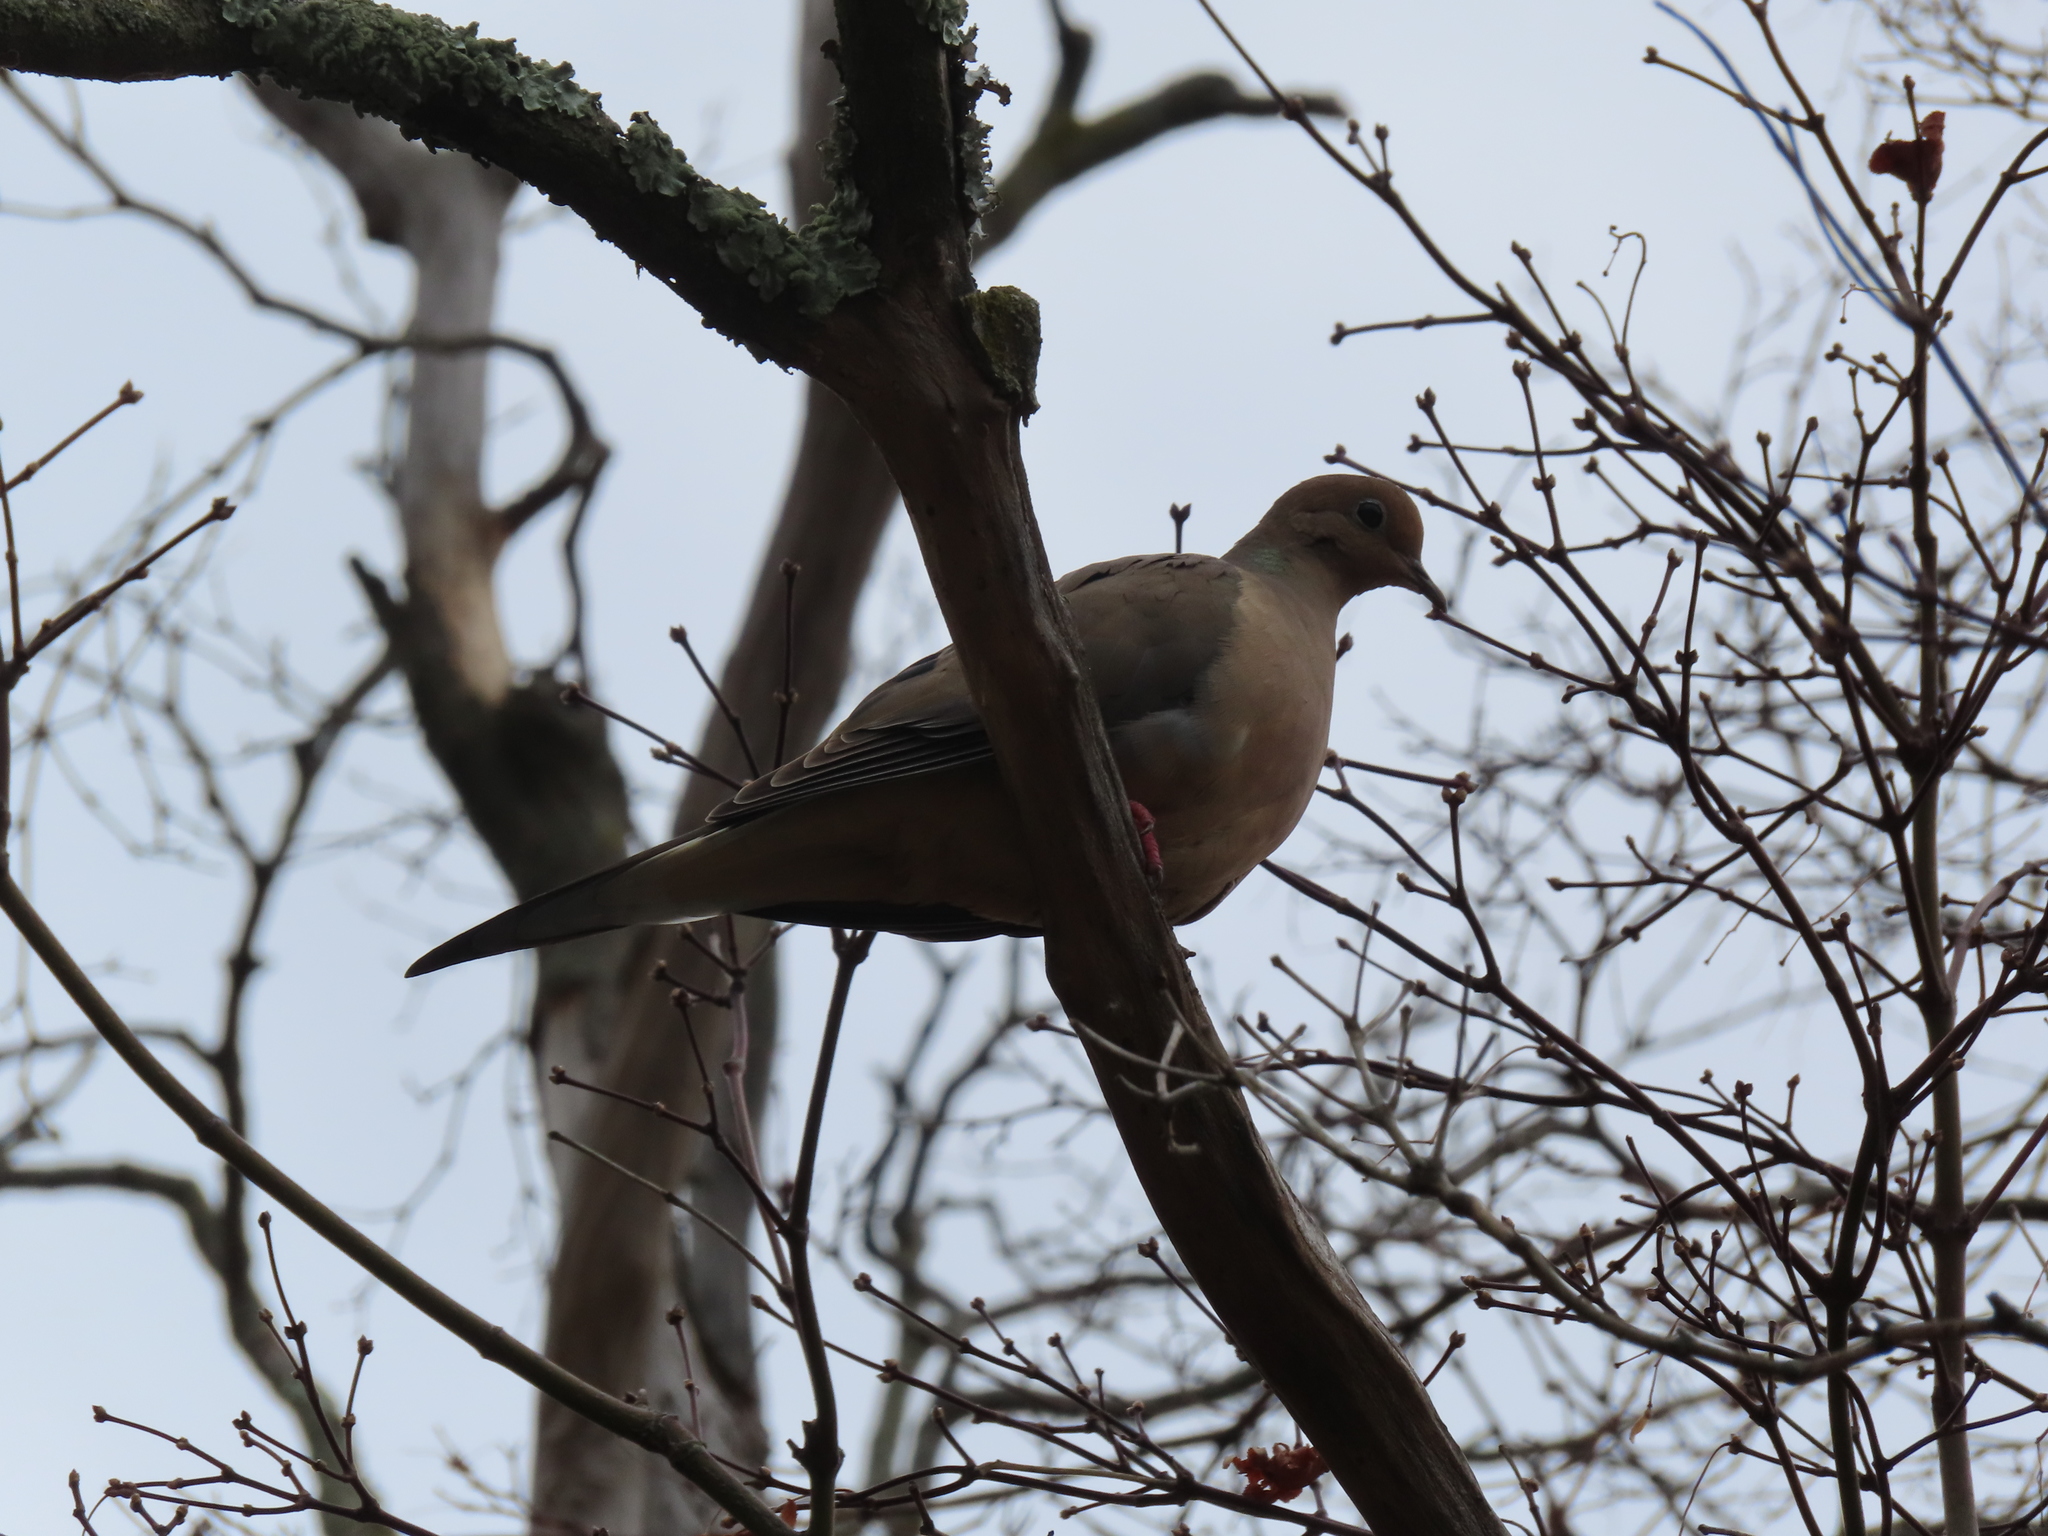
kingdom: Animalia
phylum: Chordata
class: Aves
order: Columbiformes
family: Columbidae
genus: Zenaida
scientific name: Zenaida macroura
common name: Mourning dove
